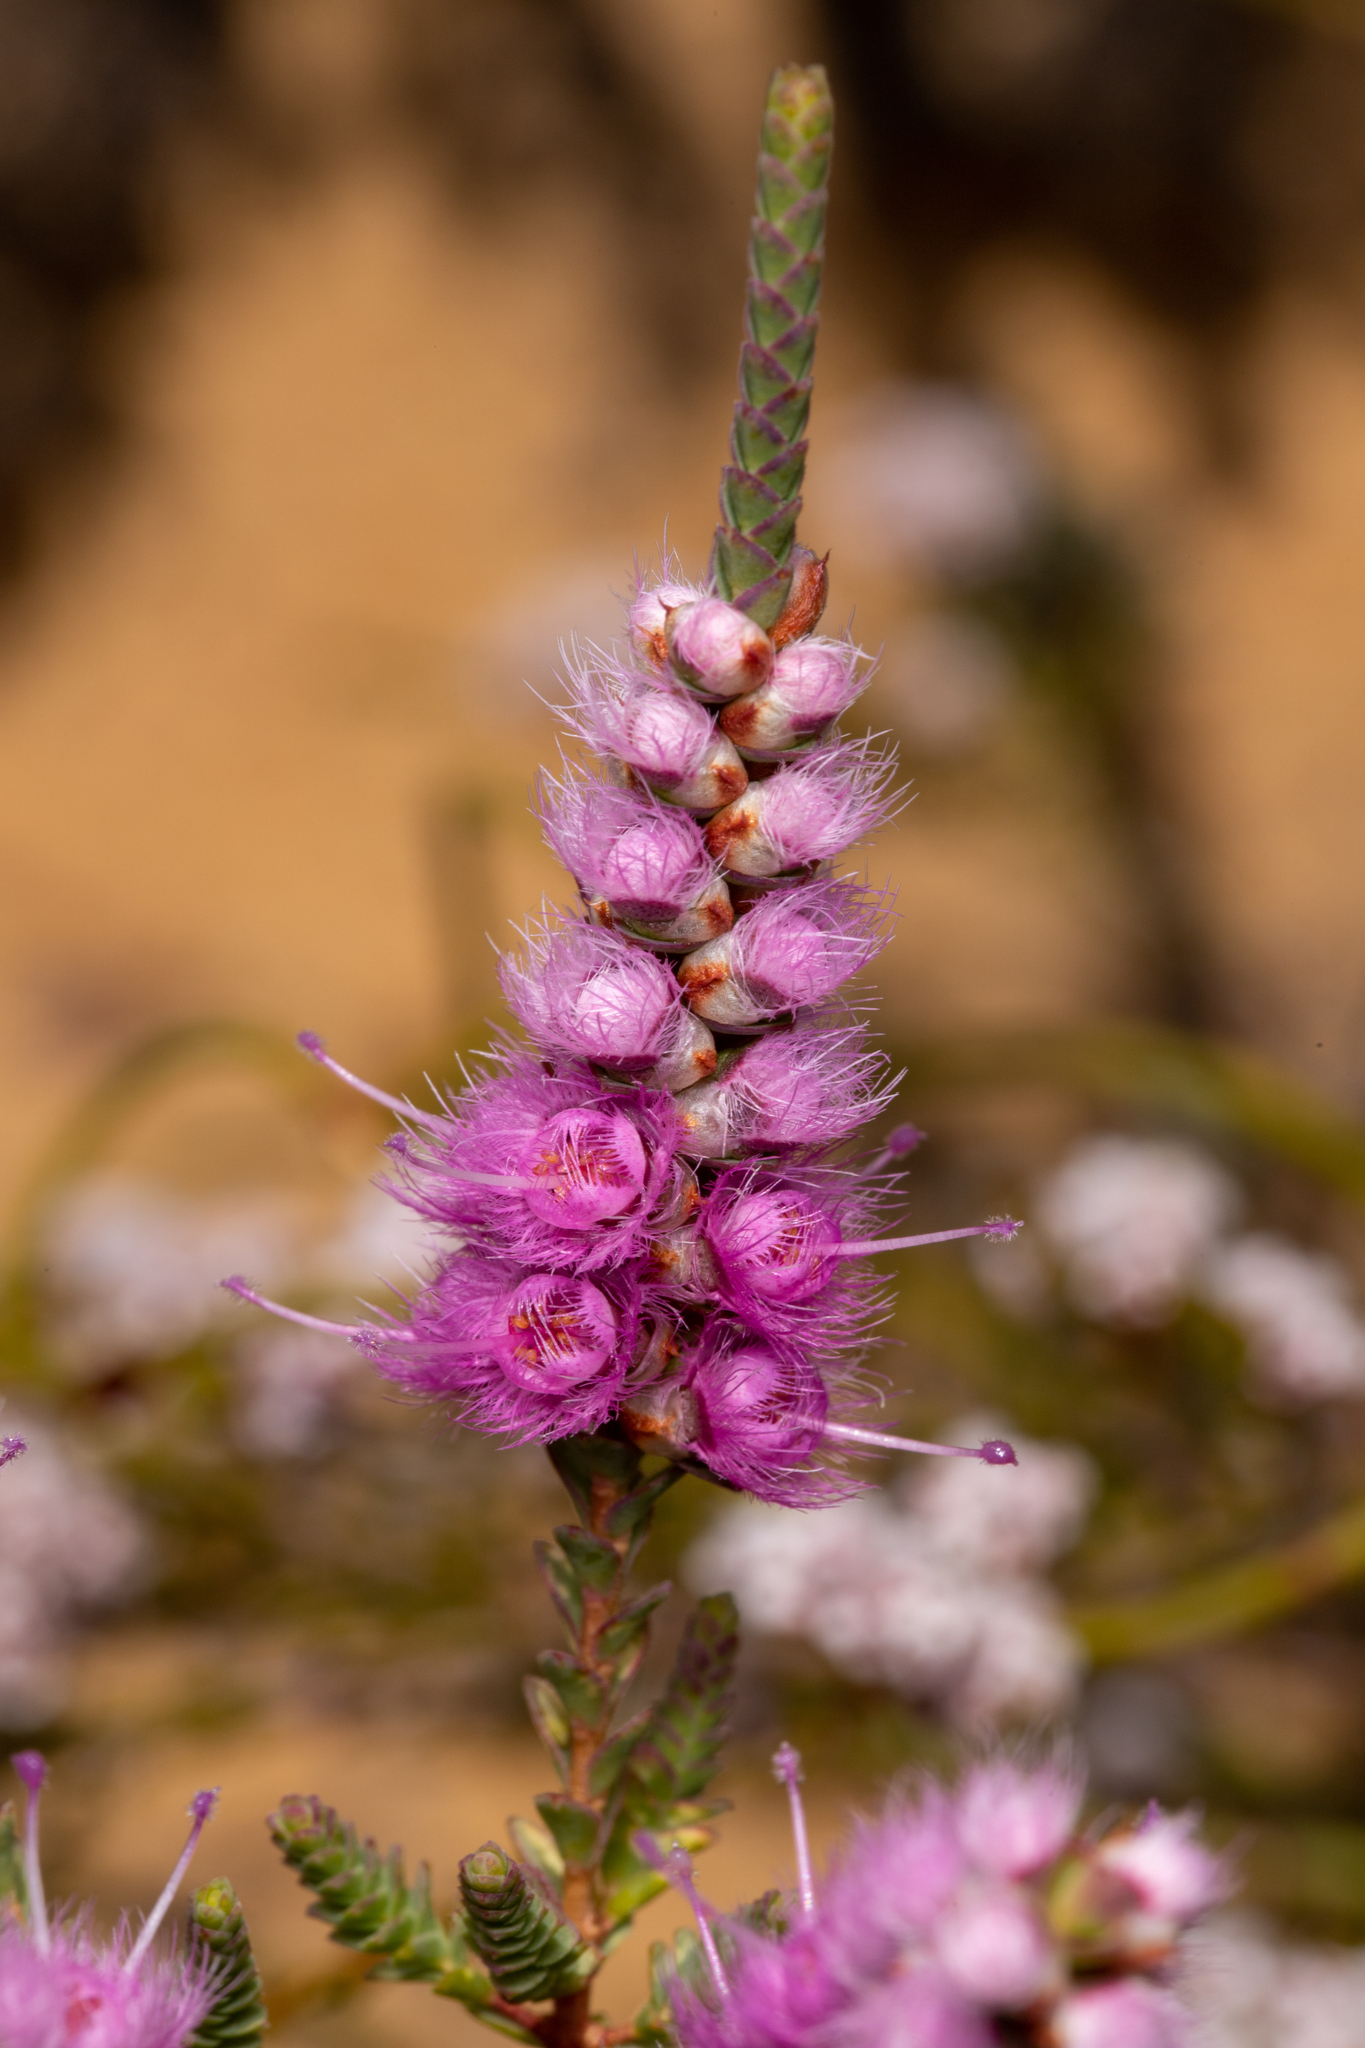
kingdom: Plantae
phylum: Tracheophyta
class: Magnoliopsida
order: Myrtales
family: Myrtaceae
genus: Verticordia
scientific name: Verticordia spicata
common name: Spike feather-flower
